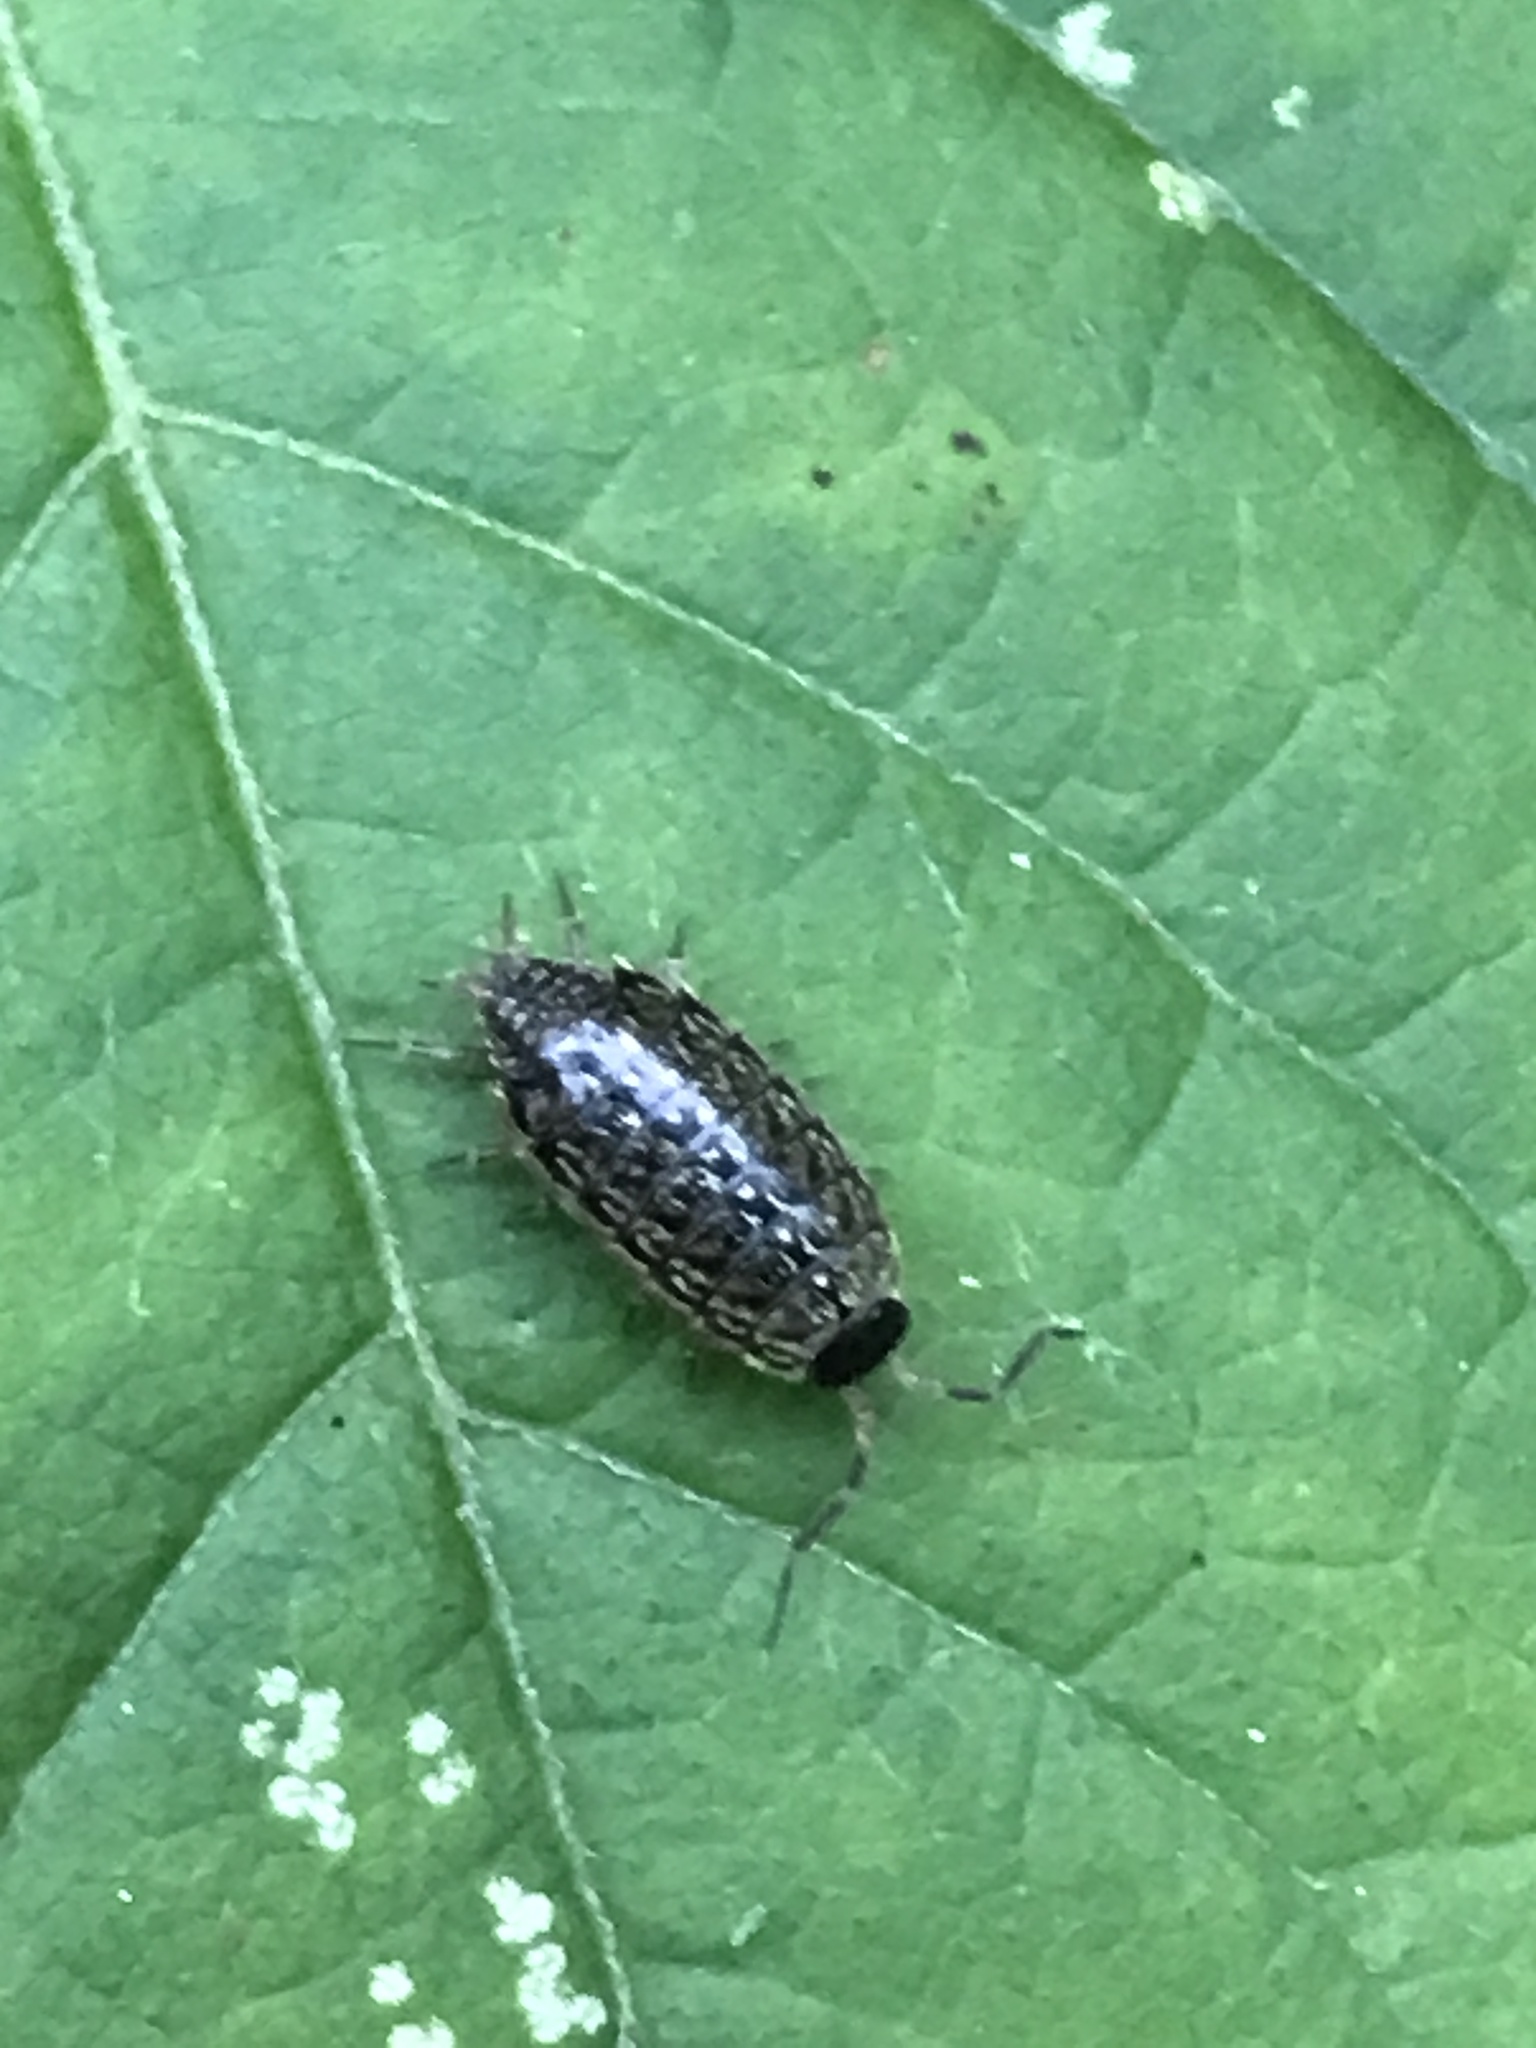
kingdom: Animalia
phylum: Arthropoda
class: Malacostraca
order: Isopoda
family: Philosciidae
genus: Philoscia
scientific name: Philoscia muscorum
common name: Common striped woodlouse
